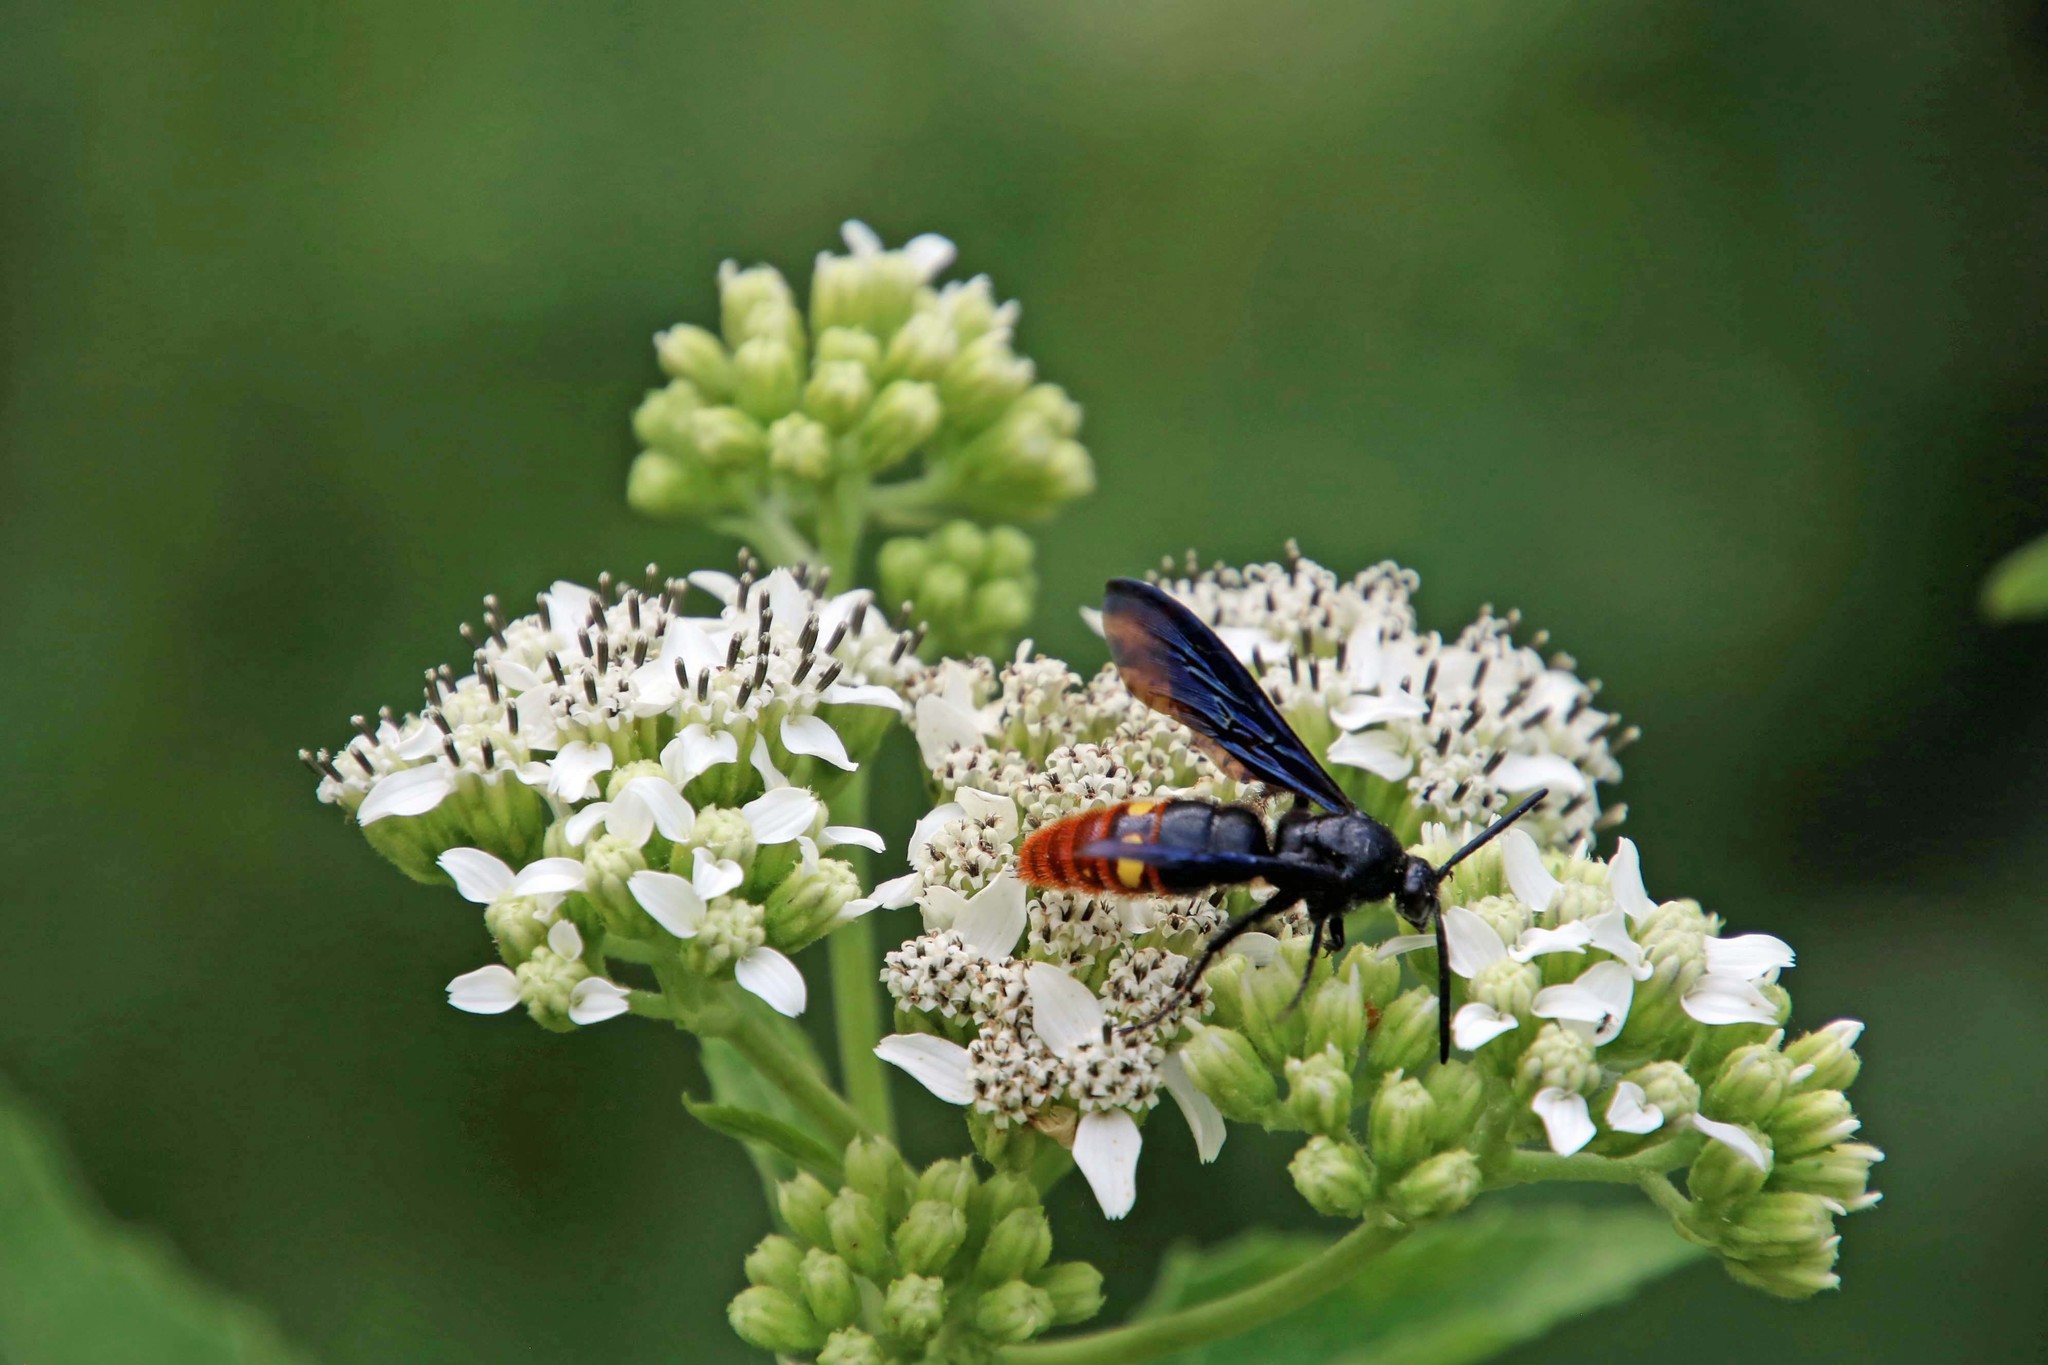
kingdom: Animalia
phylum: Arthropoda
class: Insecta
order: Hymenoptera
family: Scoliidae
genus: Scolia
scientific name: Scolia dubia
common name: Blue-winged scoliid wasp
